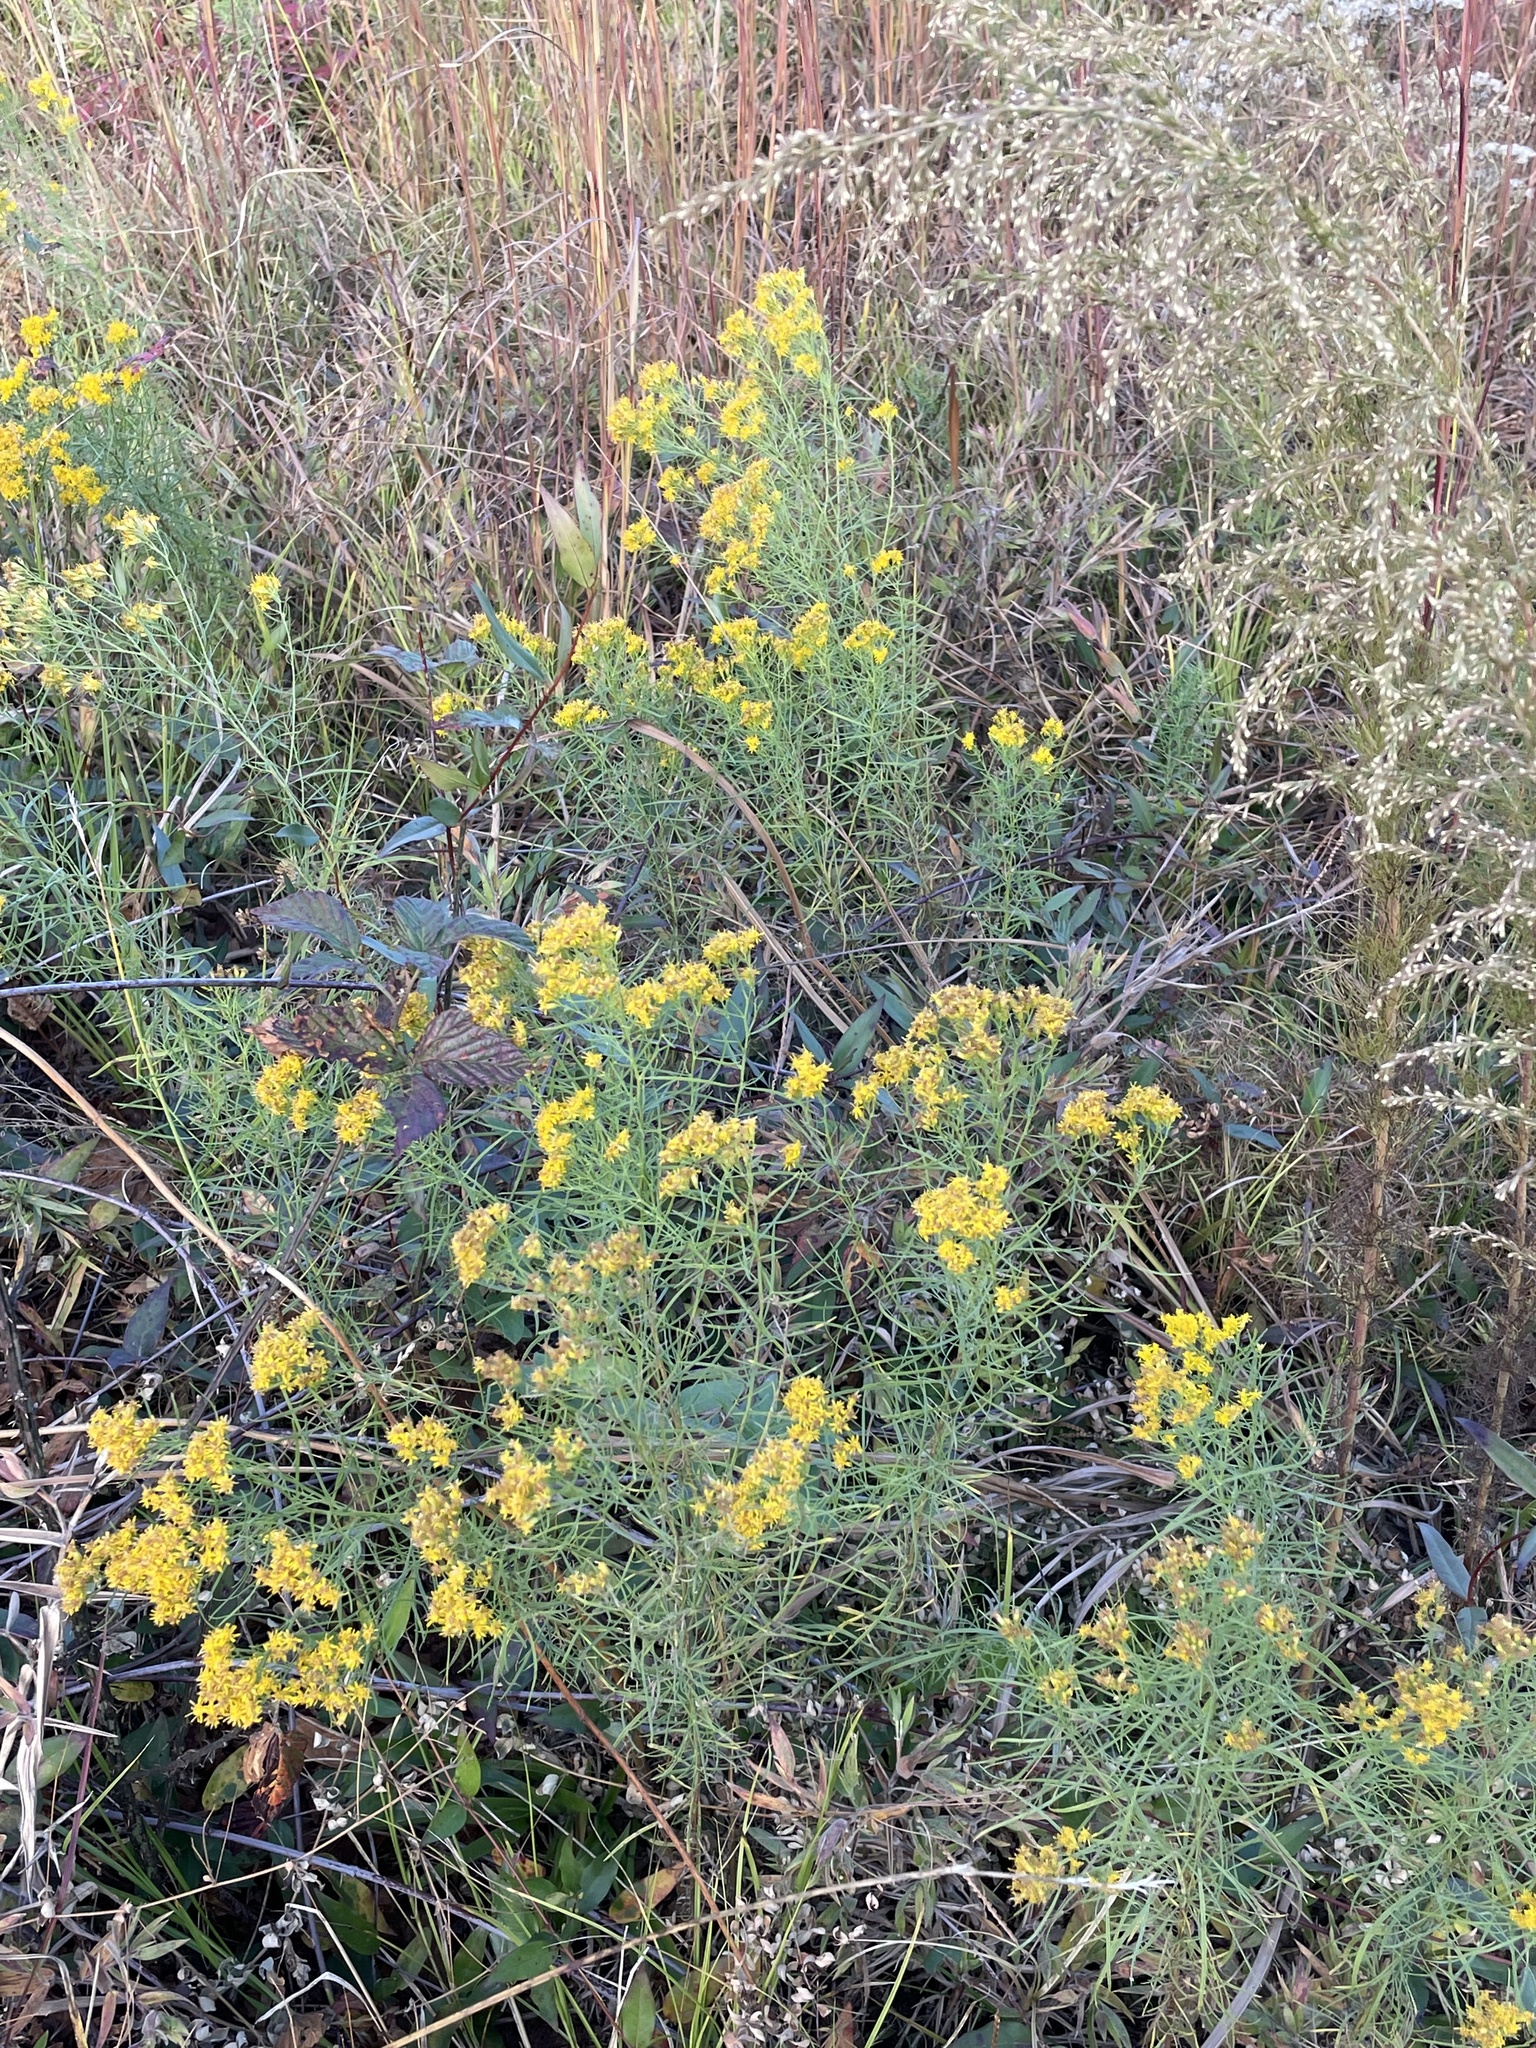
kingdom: Plantae
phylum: Tracheophyta
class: Magnoliopsida
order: Asterales
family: Asteraceae
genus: Euthamia
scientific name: Euthamia caroliniana
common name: Coastal plain goldentop
